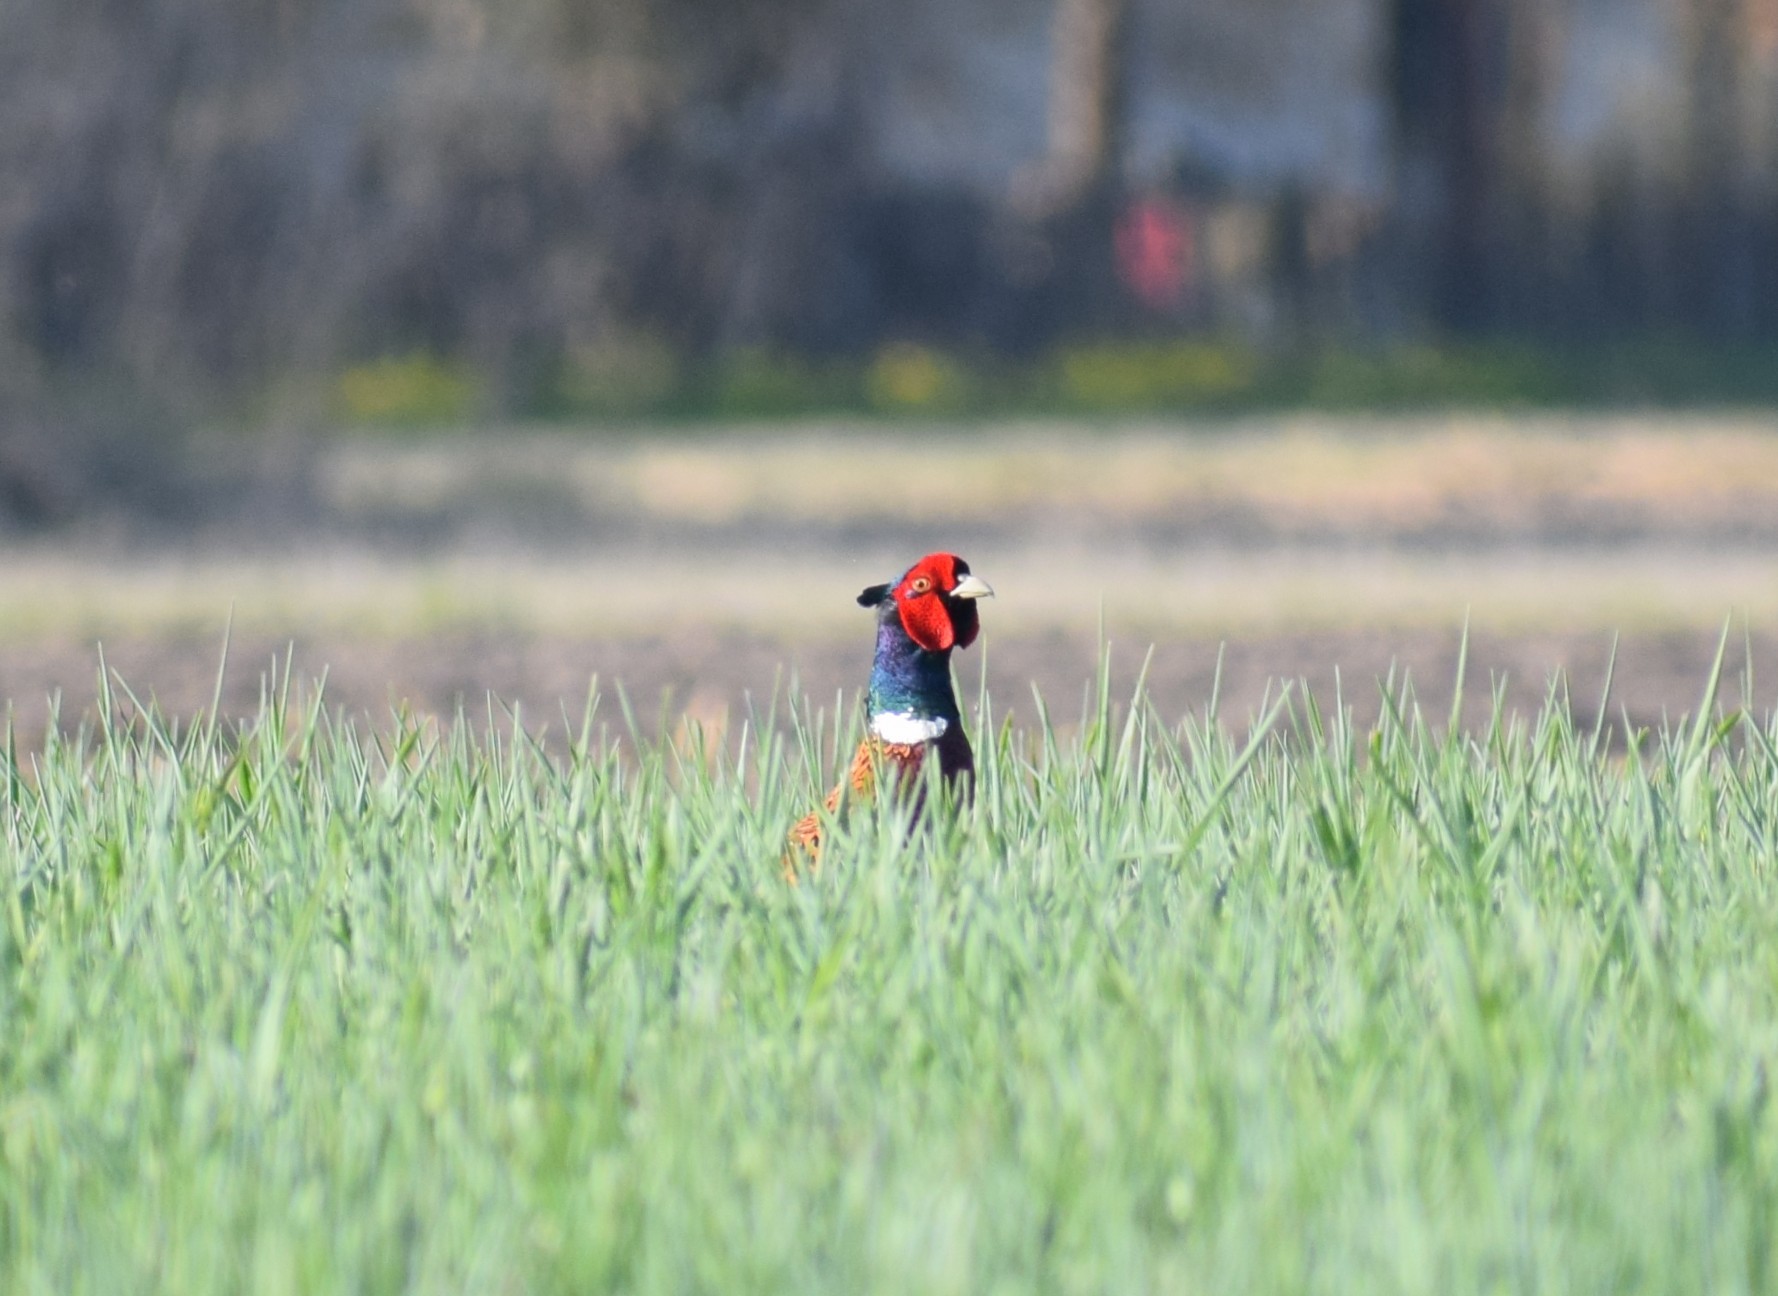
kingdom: Animalia
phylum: Chordata
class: Aves
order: Galliformes
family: Phasianidae
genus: Phasianus
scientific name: Phasianus colchicus
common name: Common pheasant
